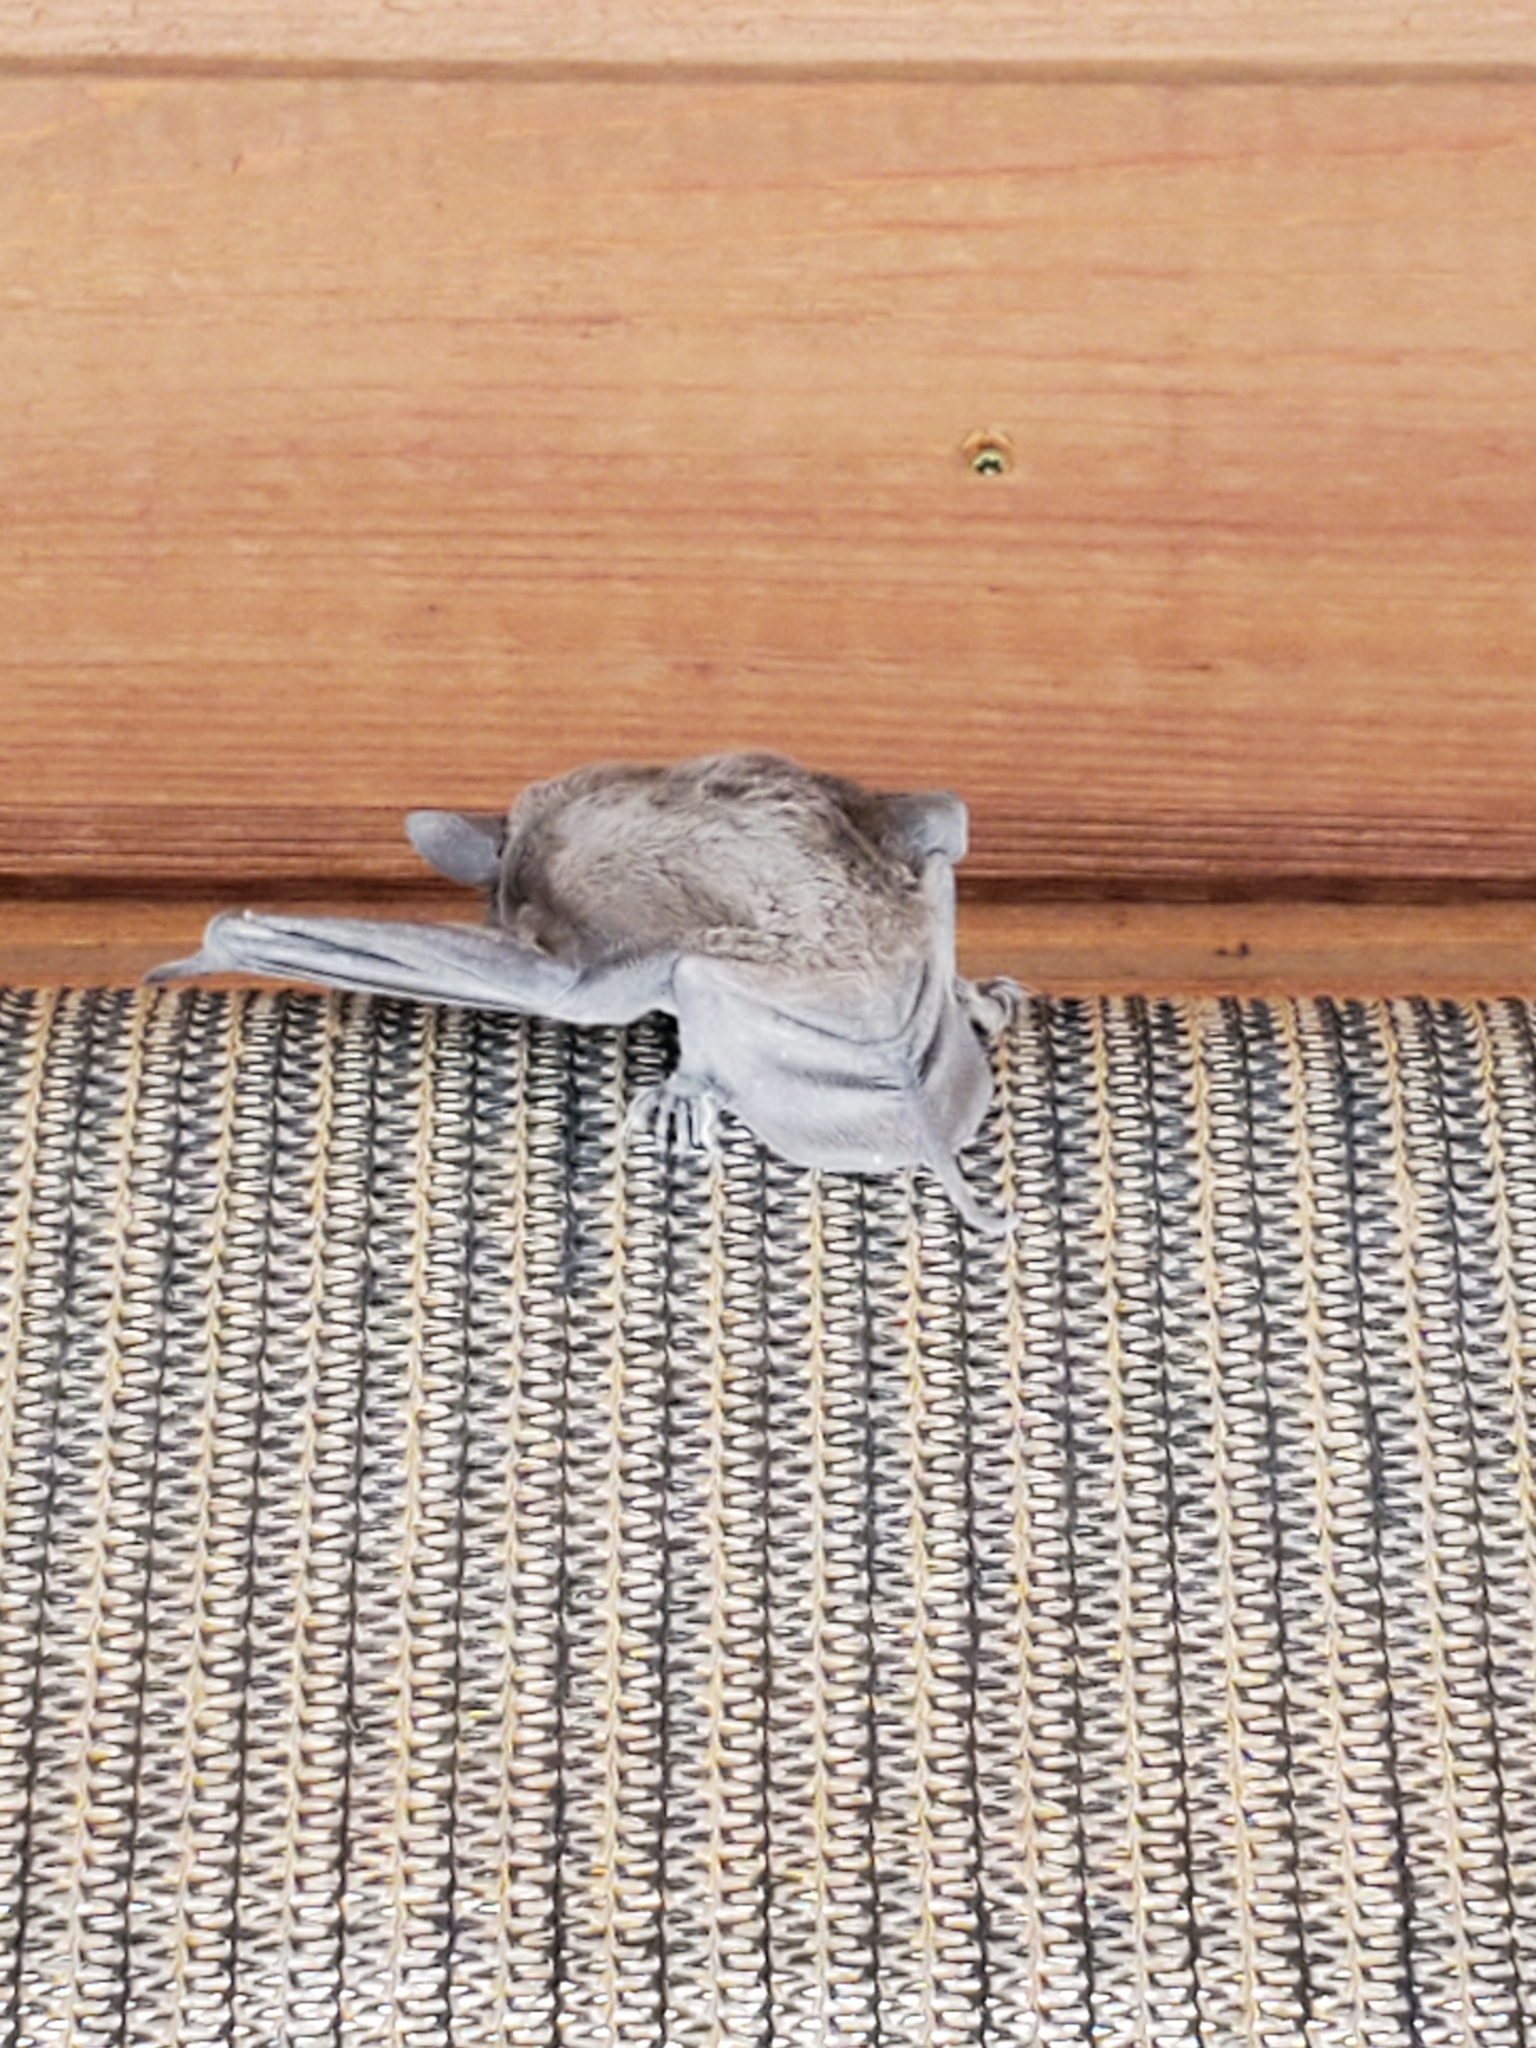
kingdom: Animalia
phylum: Chordata
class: Mammalia
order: Chiroptera
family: Molossidae
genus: Tadarida
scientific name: Tadarida brasiliensis
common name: Mexican free-tailed bat
